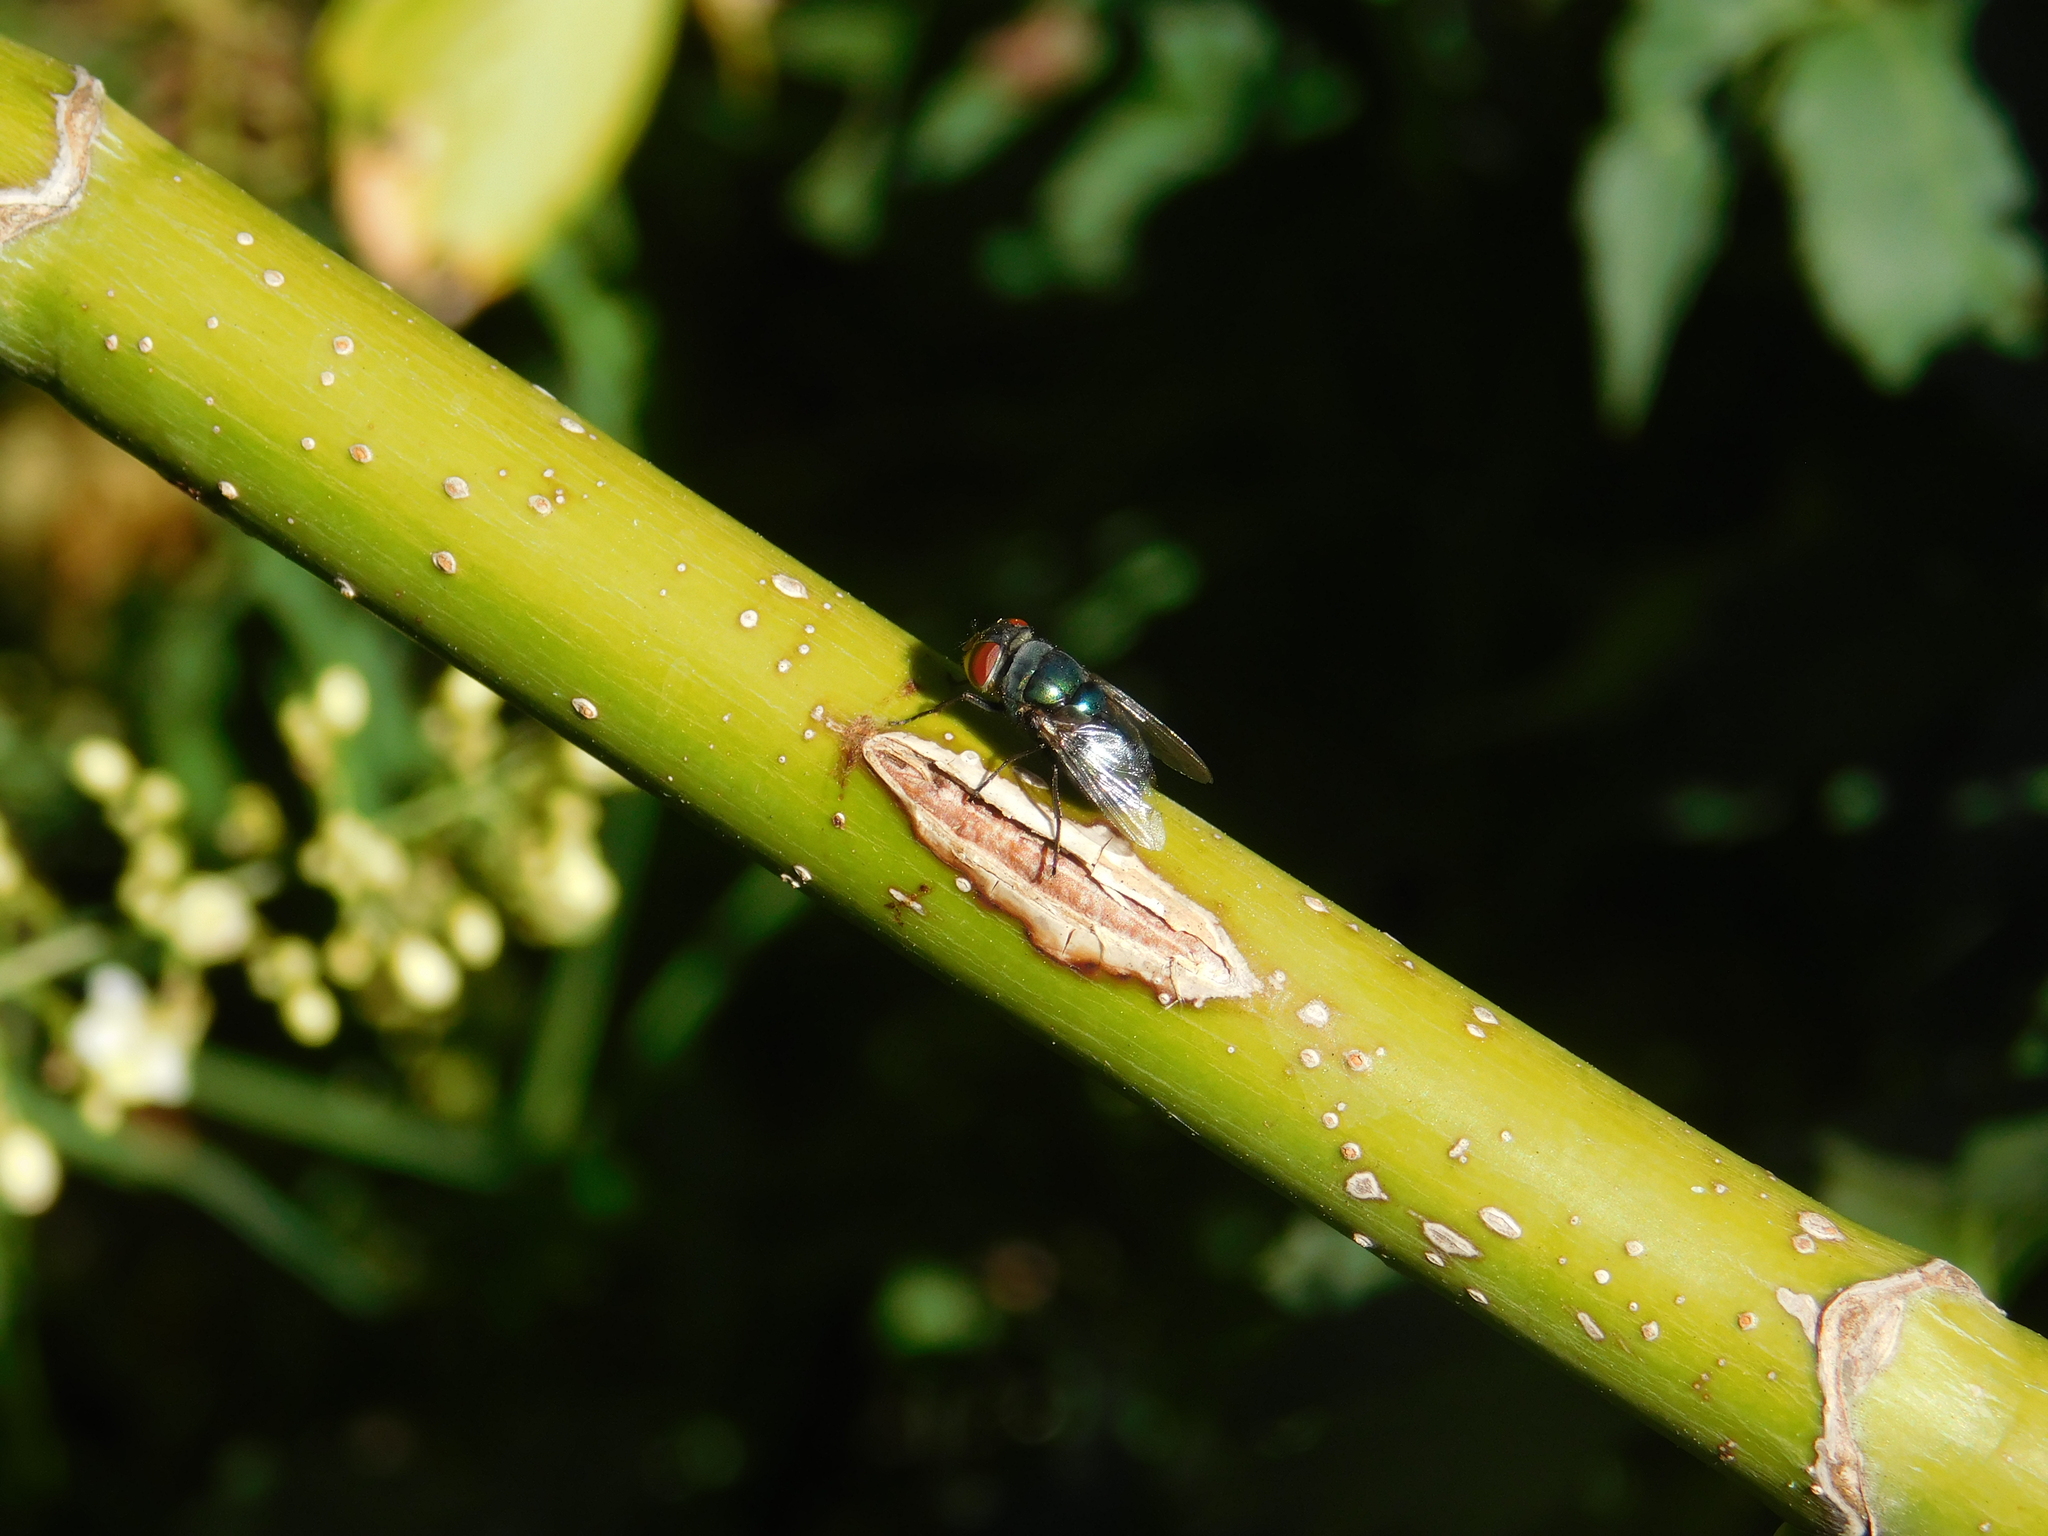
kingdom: Animalia
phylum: Arthropoda
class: Insecta
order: Diptera
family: Calliphoridae
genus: Chrysomya
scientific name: Chrysomya megacephala
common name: Blow fly
